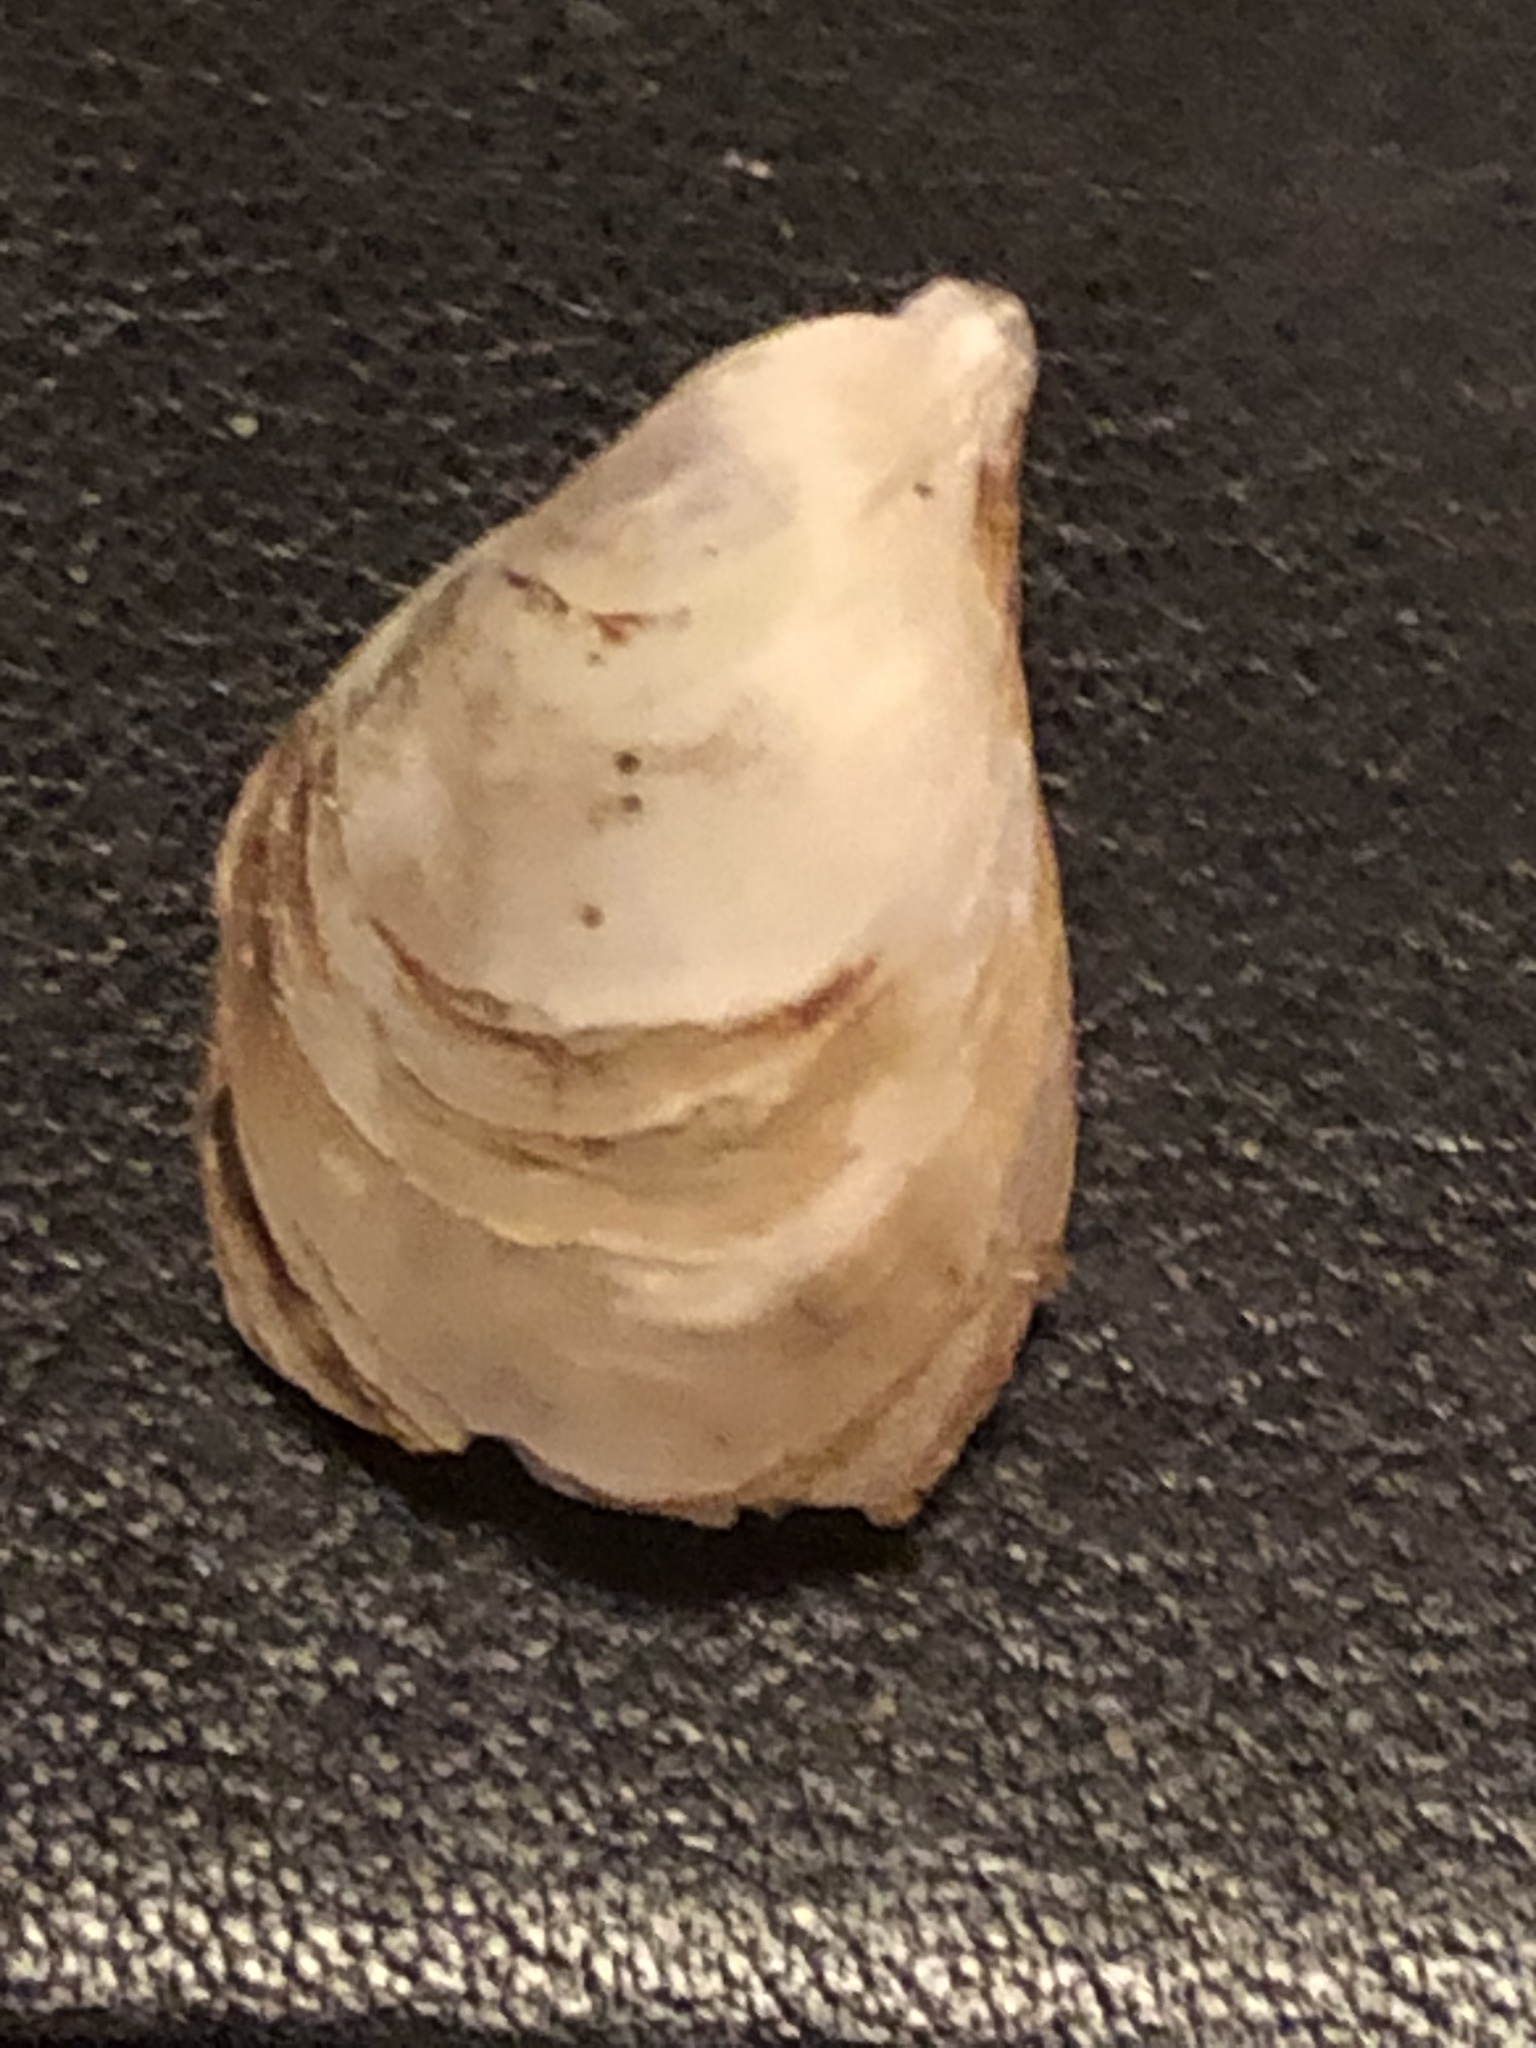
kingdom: Animalia
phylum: Mollusca
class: Bivalvia
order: Myida
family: Dreissenidae
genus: Dreissena
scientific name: Dreissena bugensis
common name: Quagga mussel
